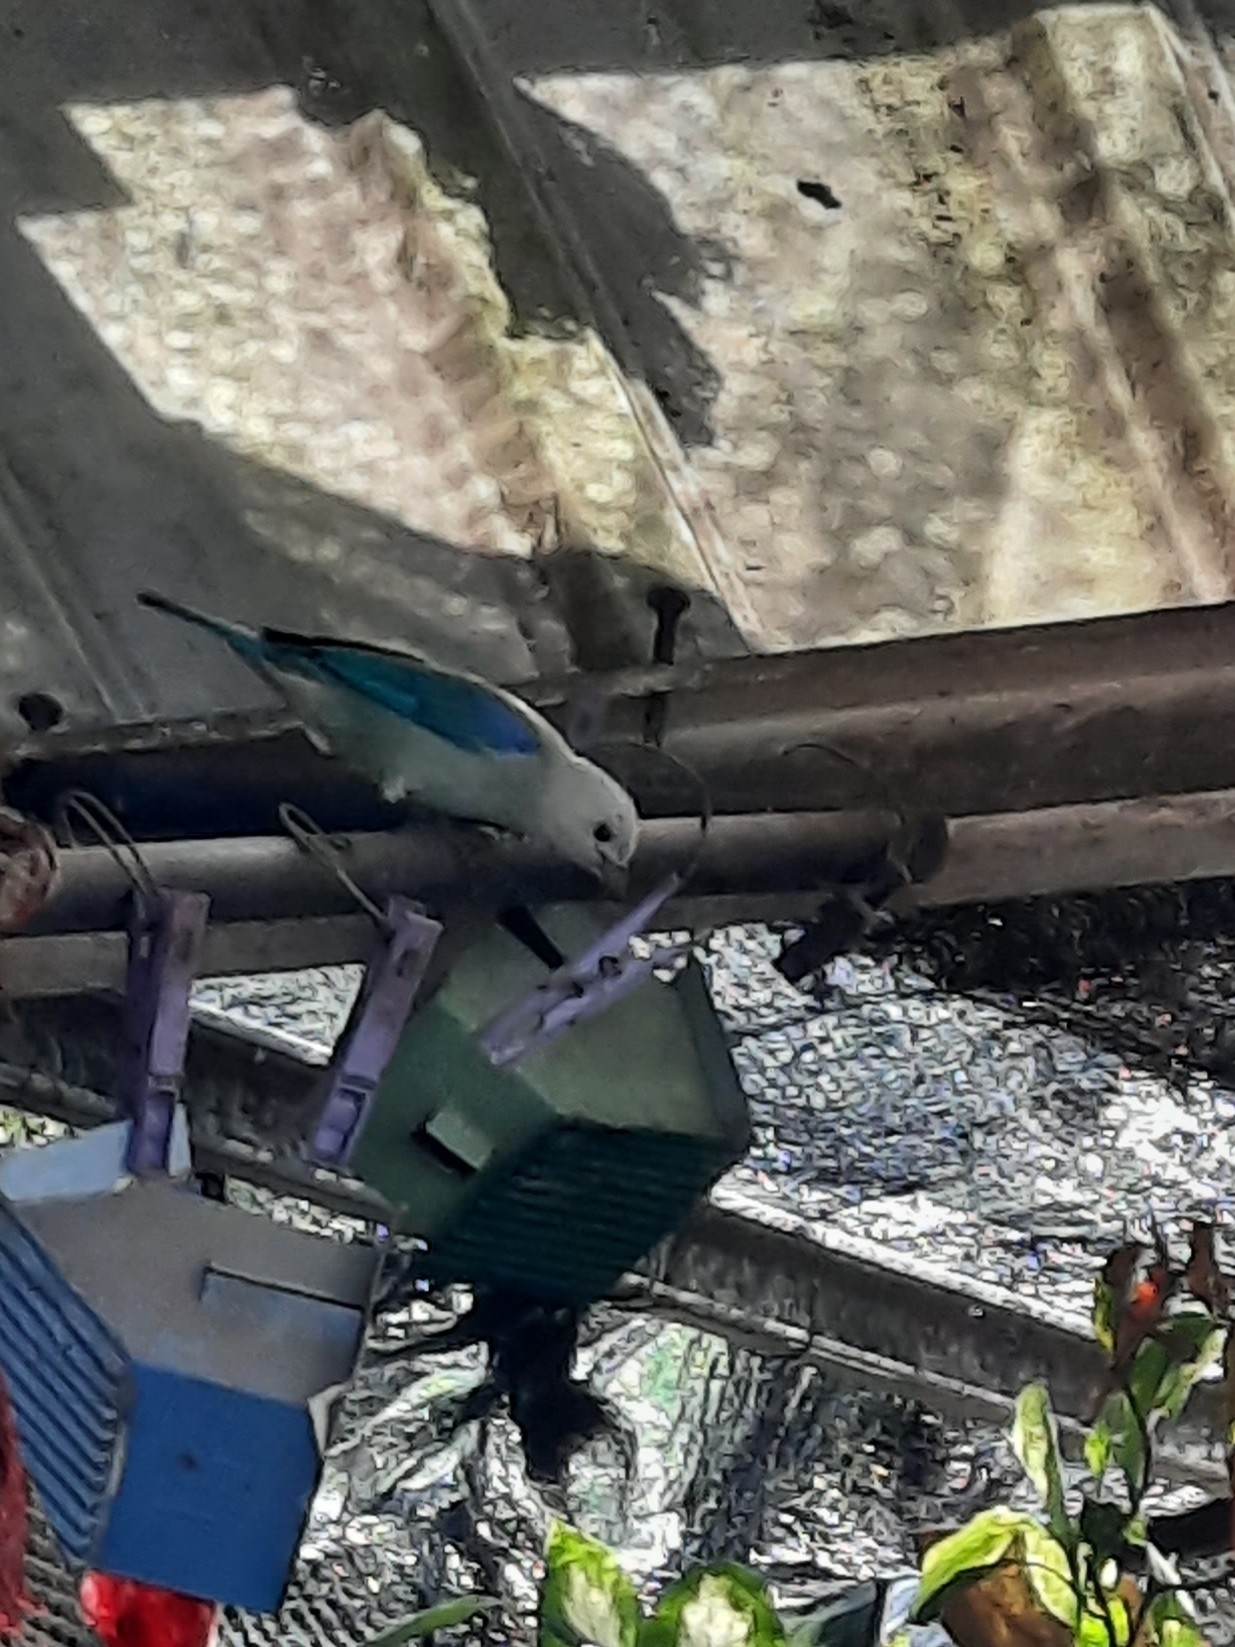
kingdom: Animalia
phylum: Chordata
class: Aves
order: Passeriformes
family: Thraupidae
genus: Thraupis
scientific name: Thraupis episcopus
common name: Blue-grey tanager
